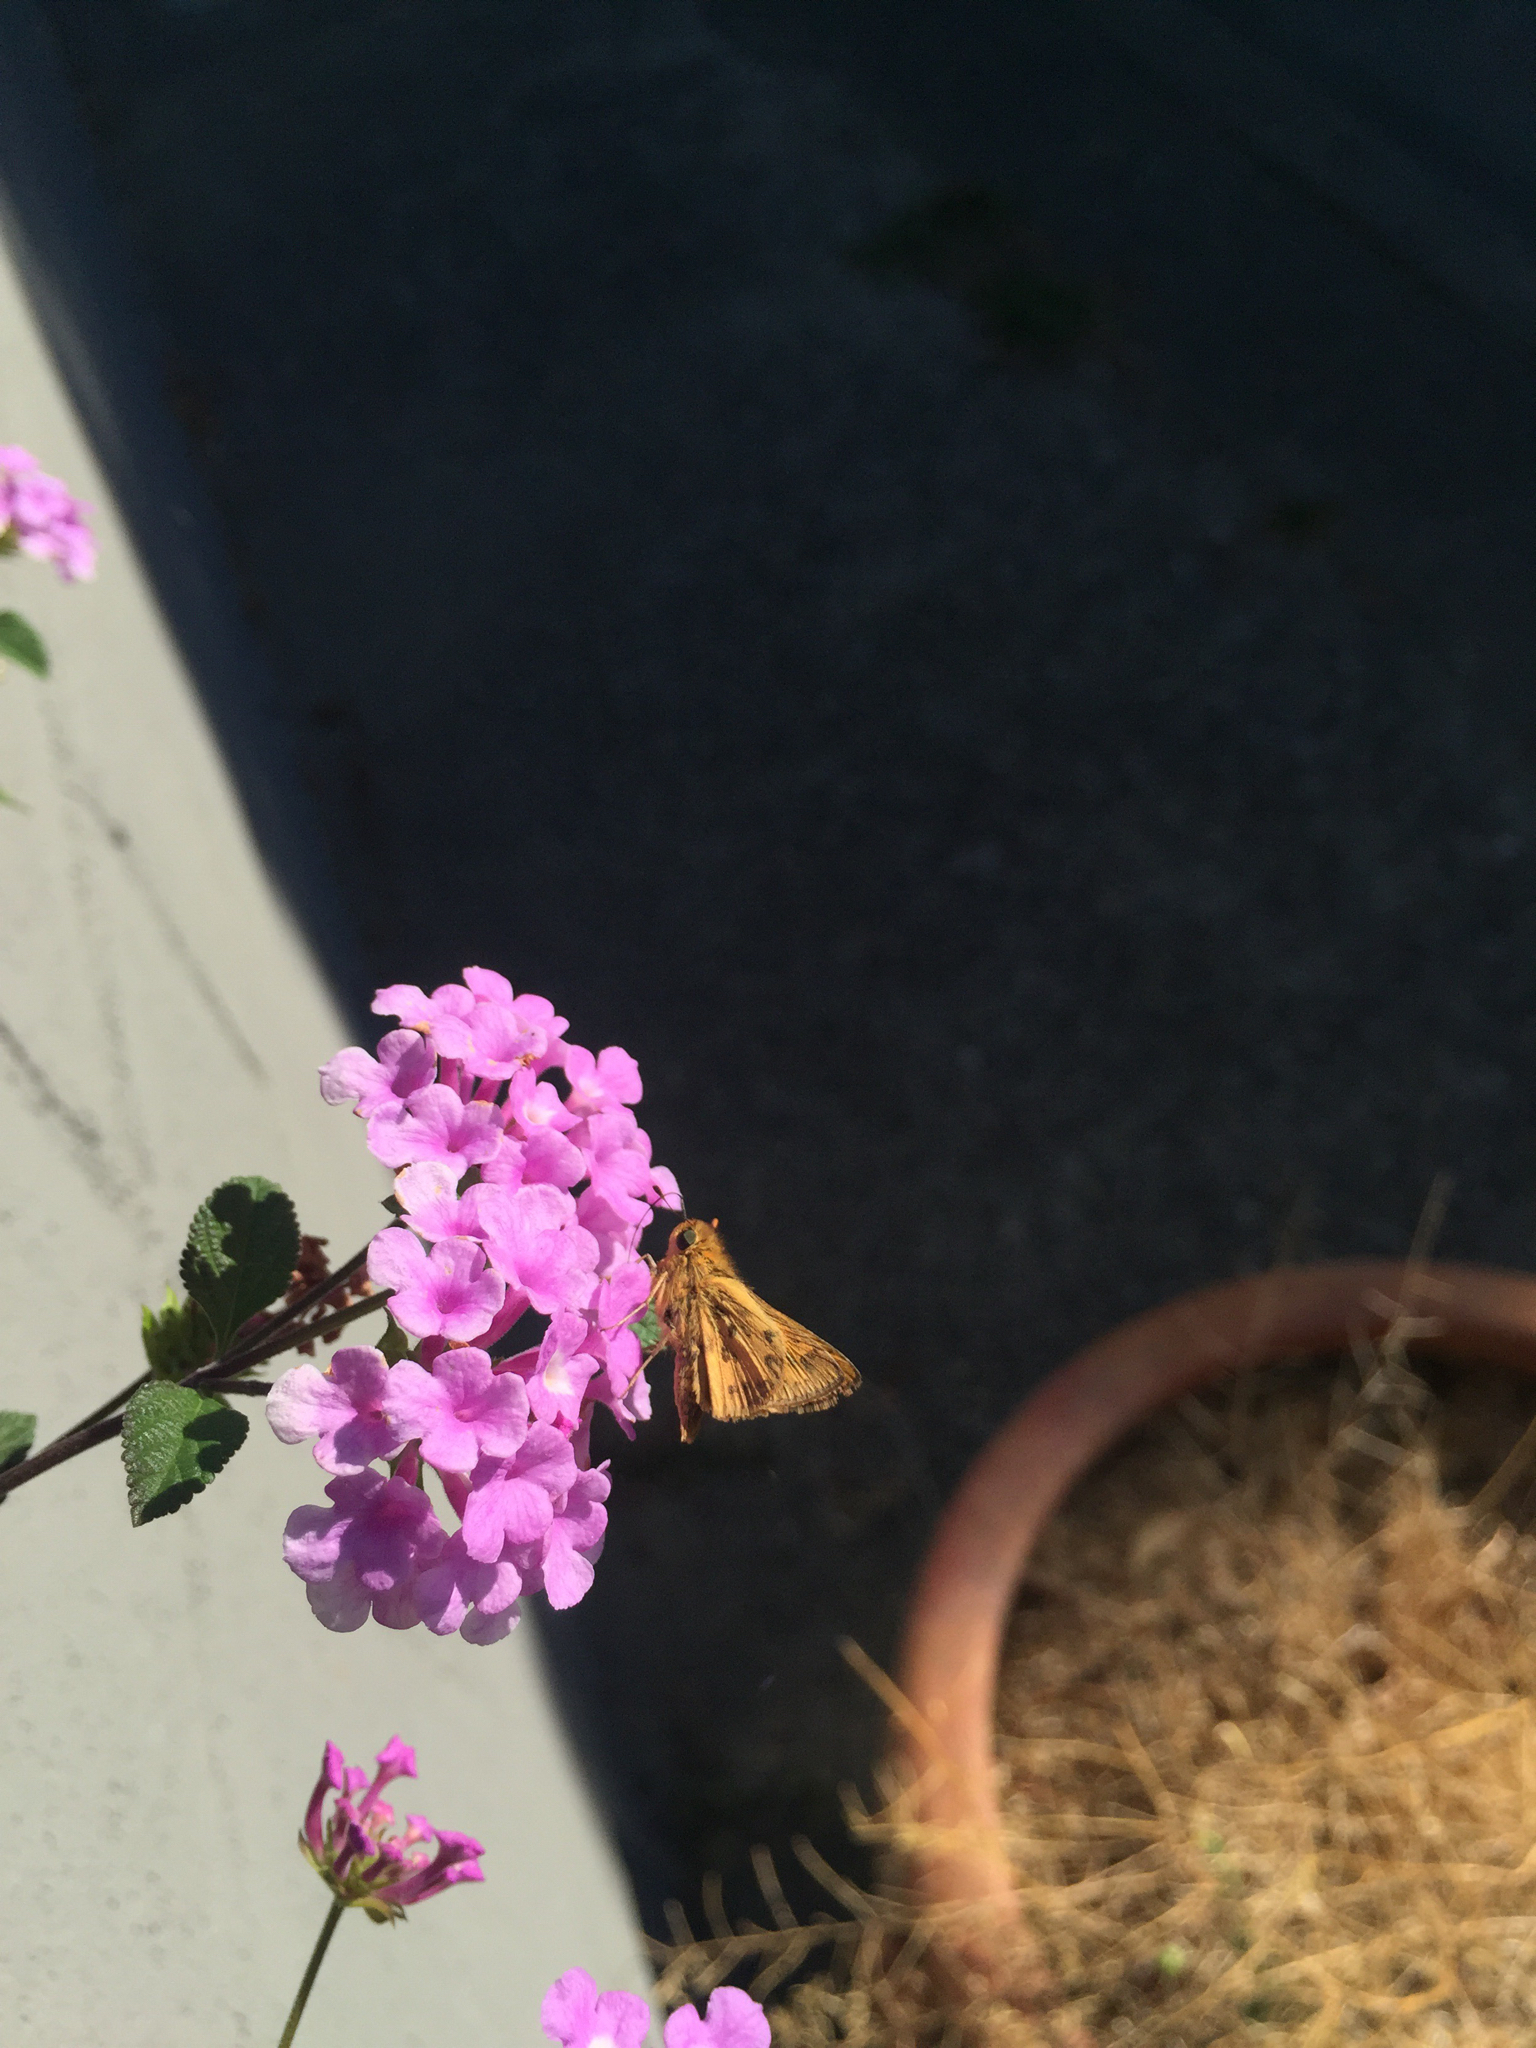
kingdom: Animalia
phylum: Arthropoda
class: Insecta
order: Lepidoptera
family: Hesperiidae
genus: Hylephila
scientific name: Hylephila phyleus
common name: Fiery skipper
